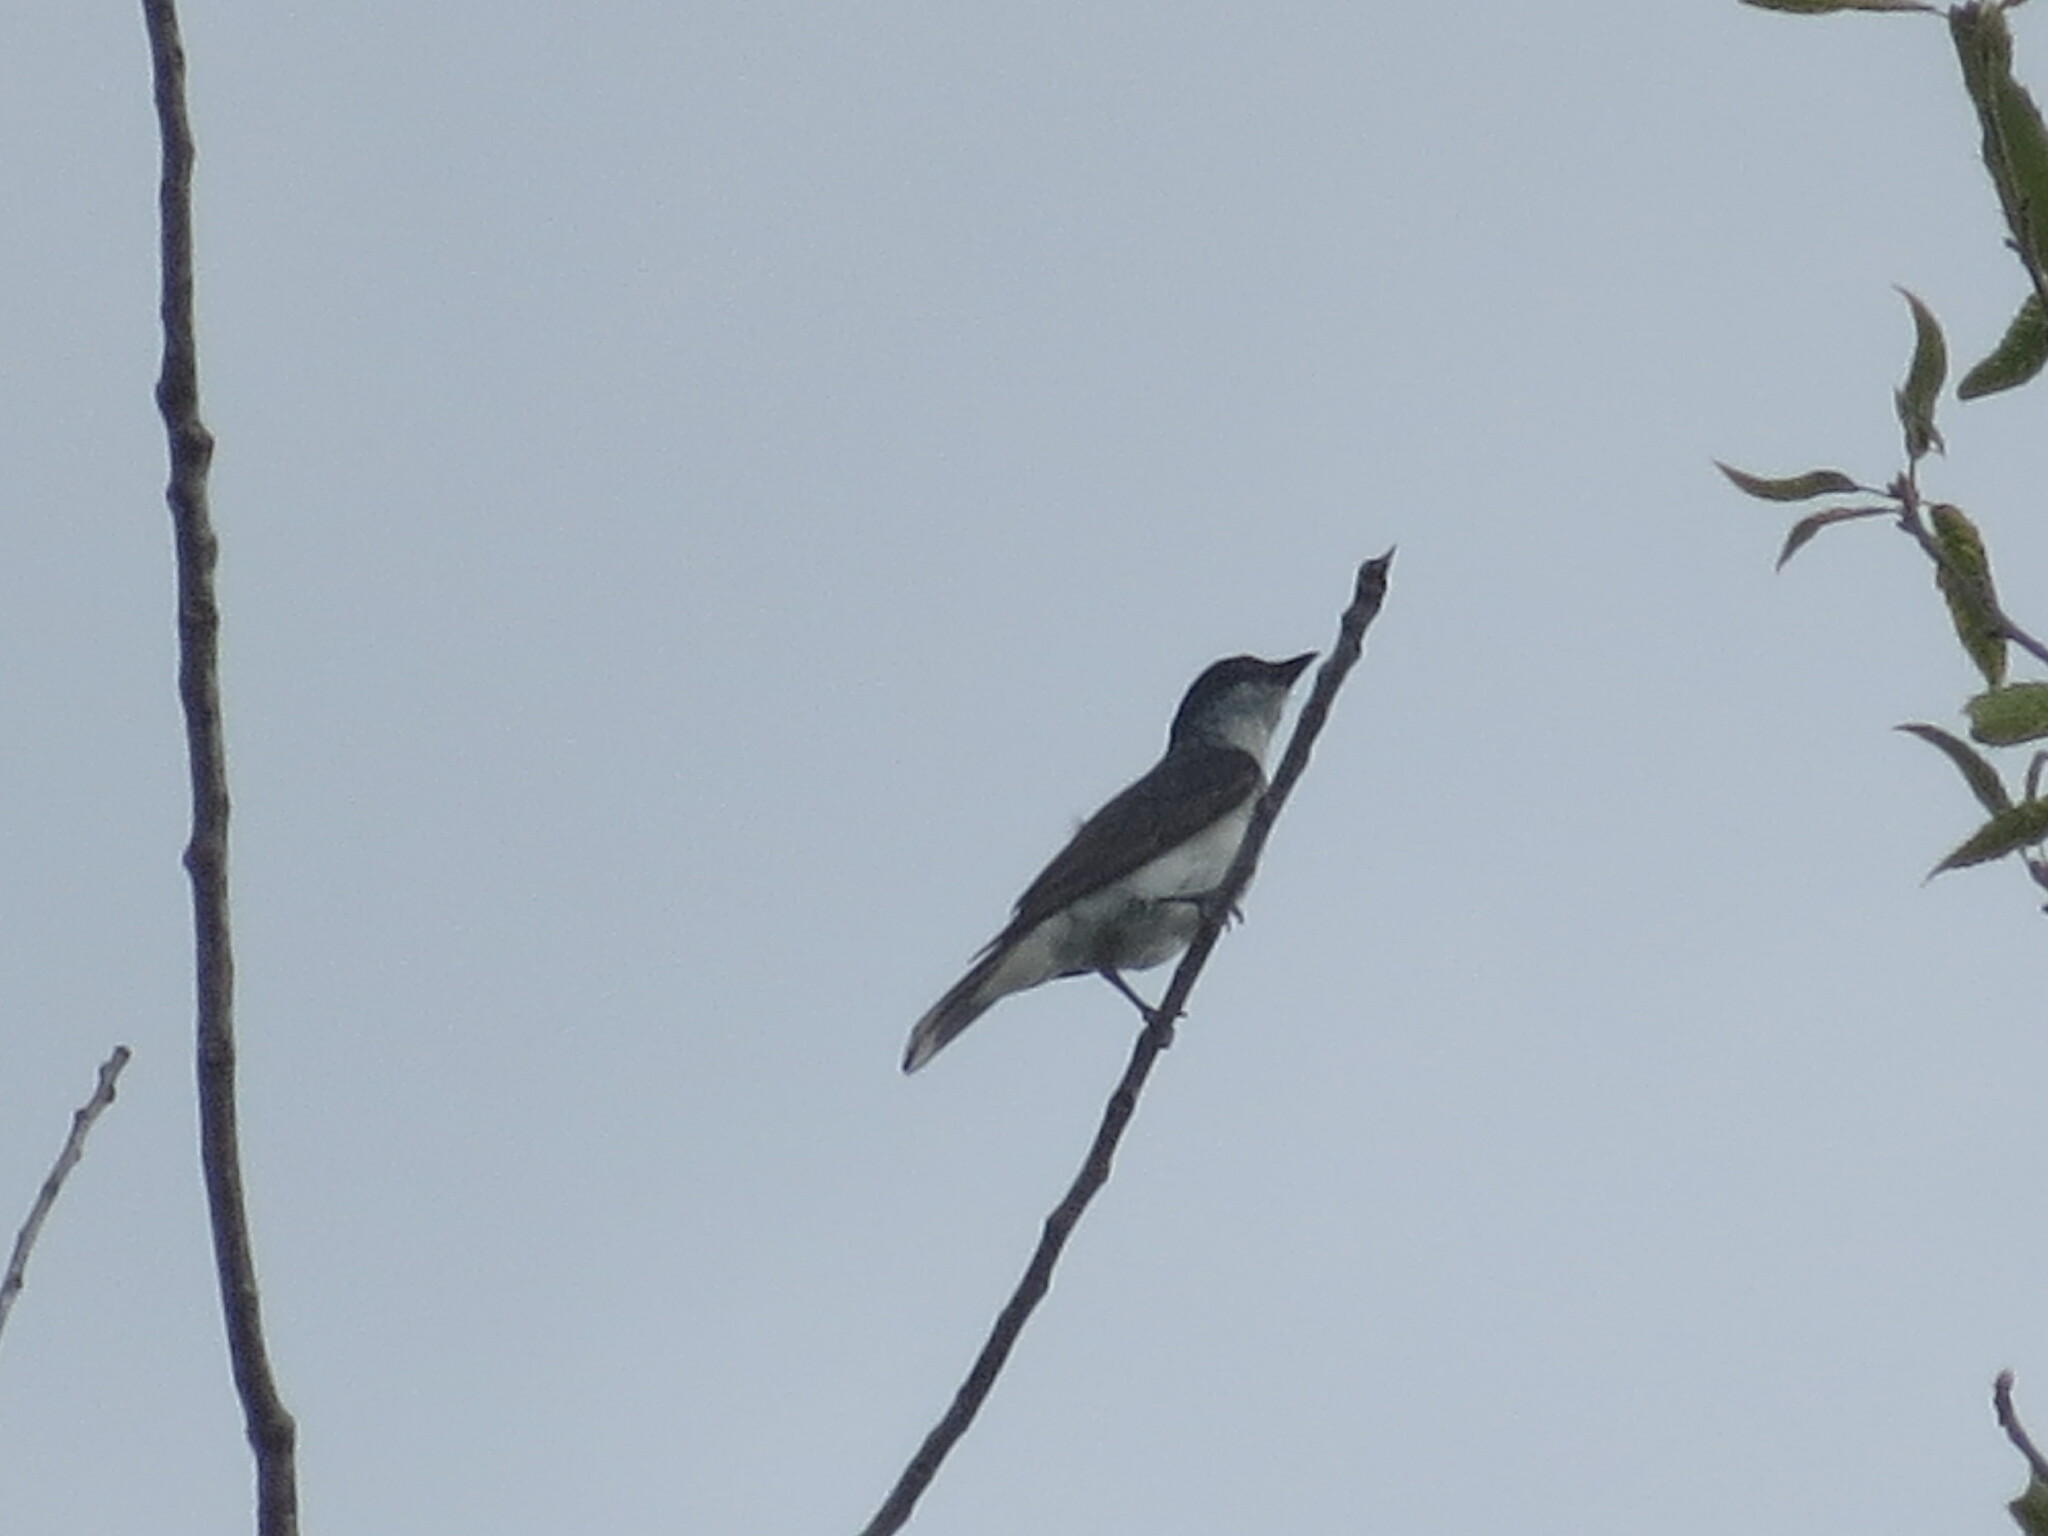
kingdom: Animalia
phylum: Chordata
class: Aves
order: Passeriformes
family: Tyrannidae
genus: Tyrannus
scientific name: Tyrannus tyrannus
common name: Eastern kingbird
